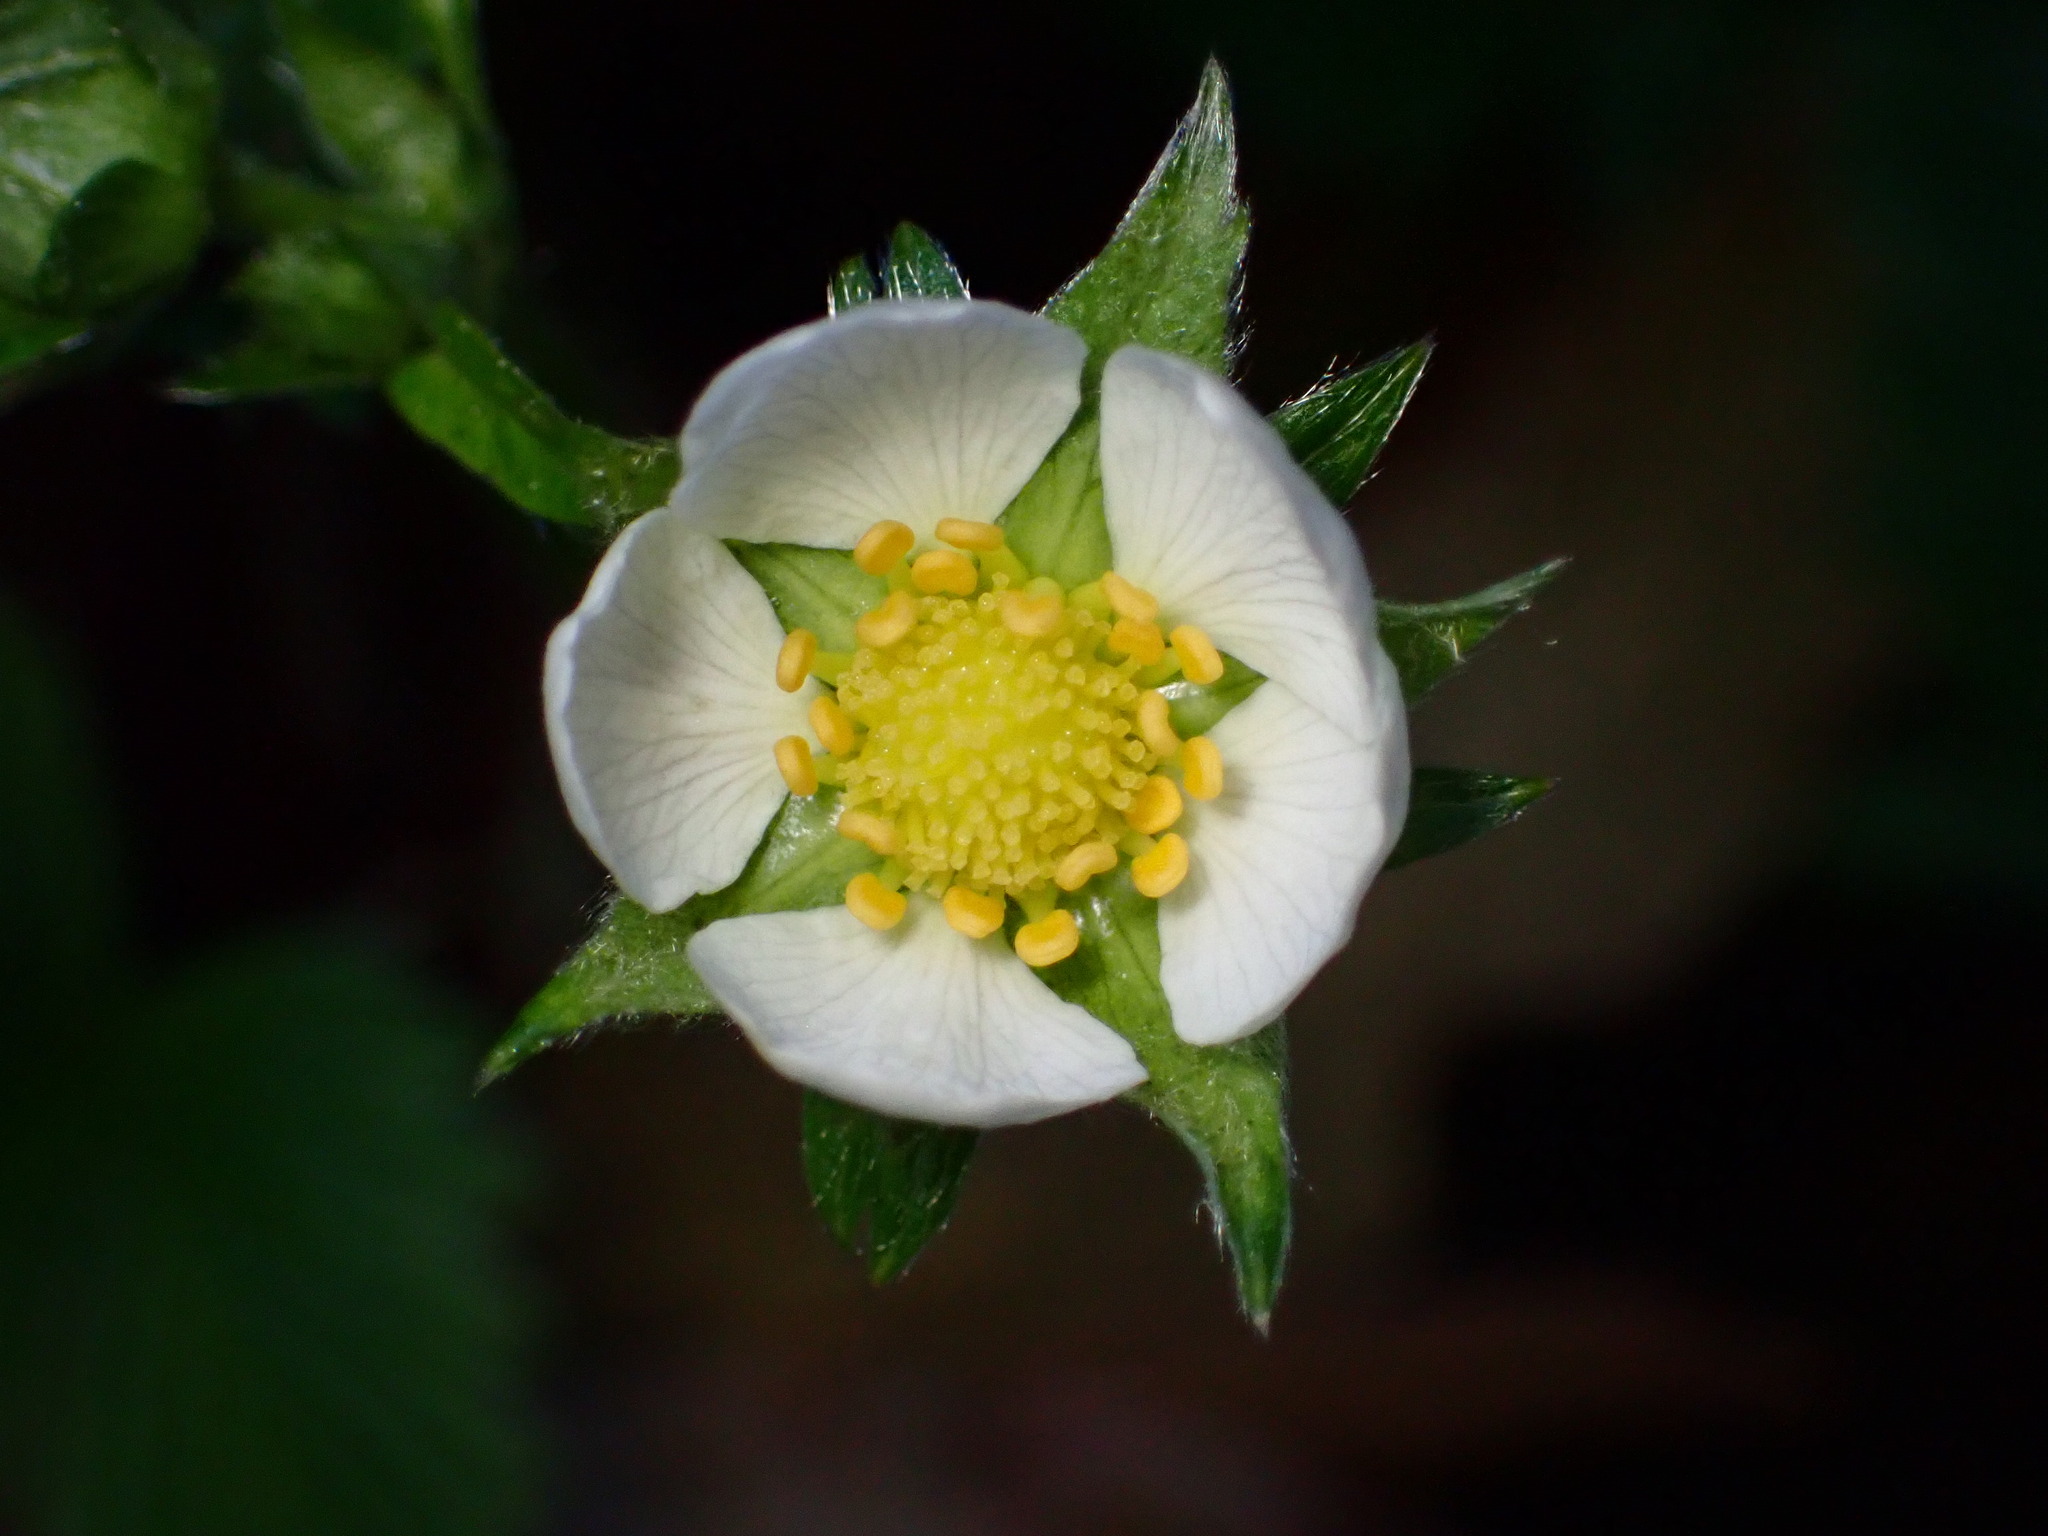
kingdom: Plantae
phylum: Tracheophyta
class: Magnoliopsida
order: Rosales
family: Rosaceae
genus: Fragaria
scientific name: Fragaria vesca
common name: Wild strawberry
